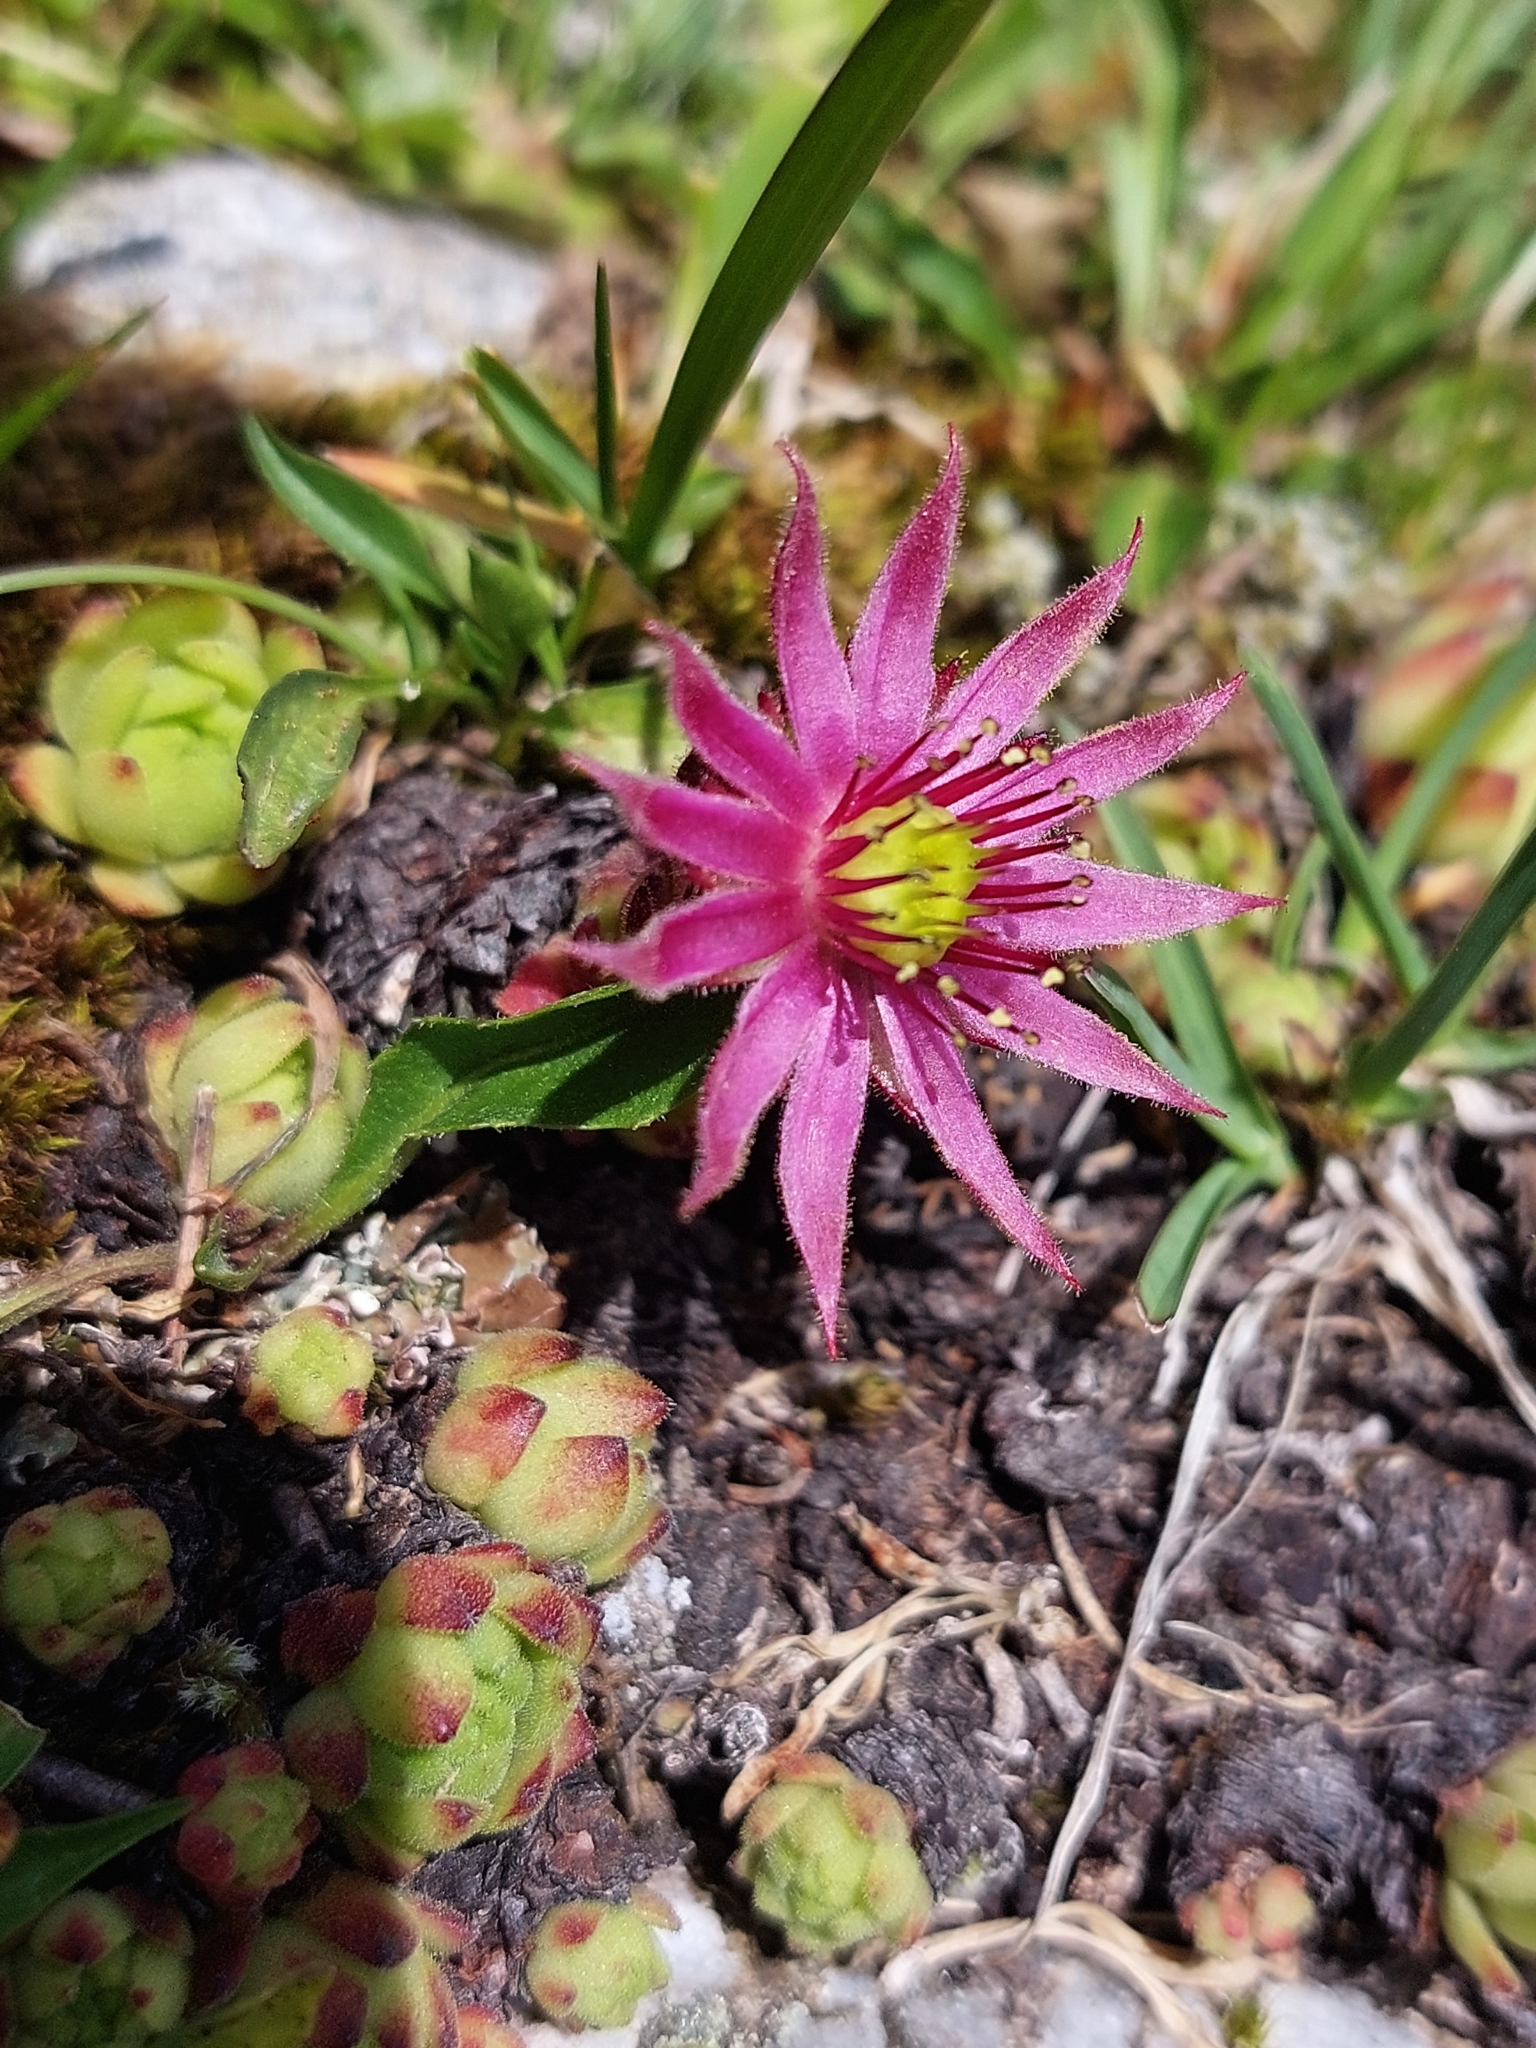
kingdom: Plantae
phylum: Tracheophyta
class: Magnoliopsida
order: Saxifragales
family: Crassulaceae
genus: Sempervivum
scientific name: Sempervivum montanum
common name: Mountain house-leek
